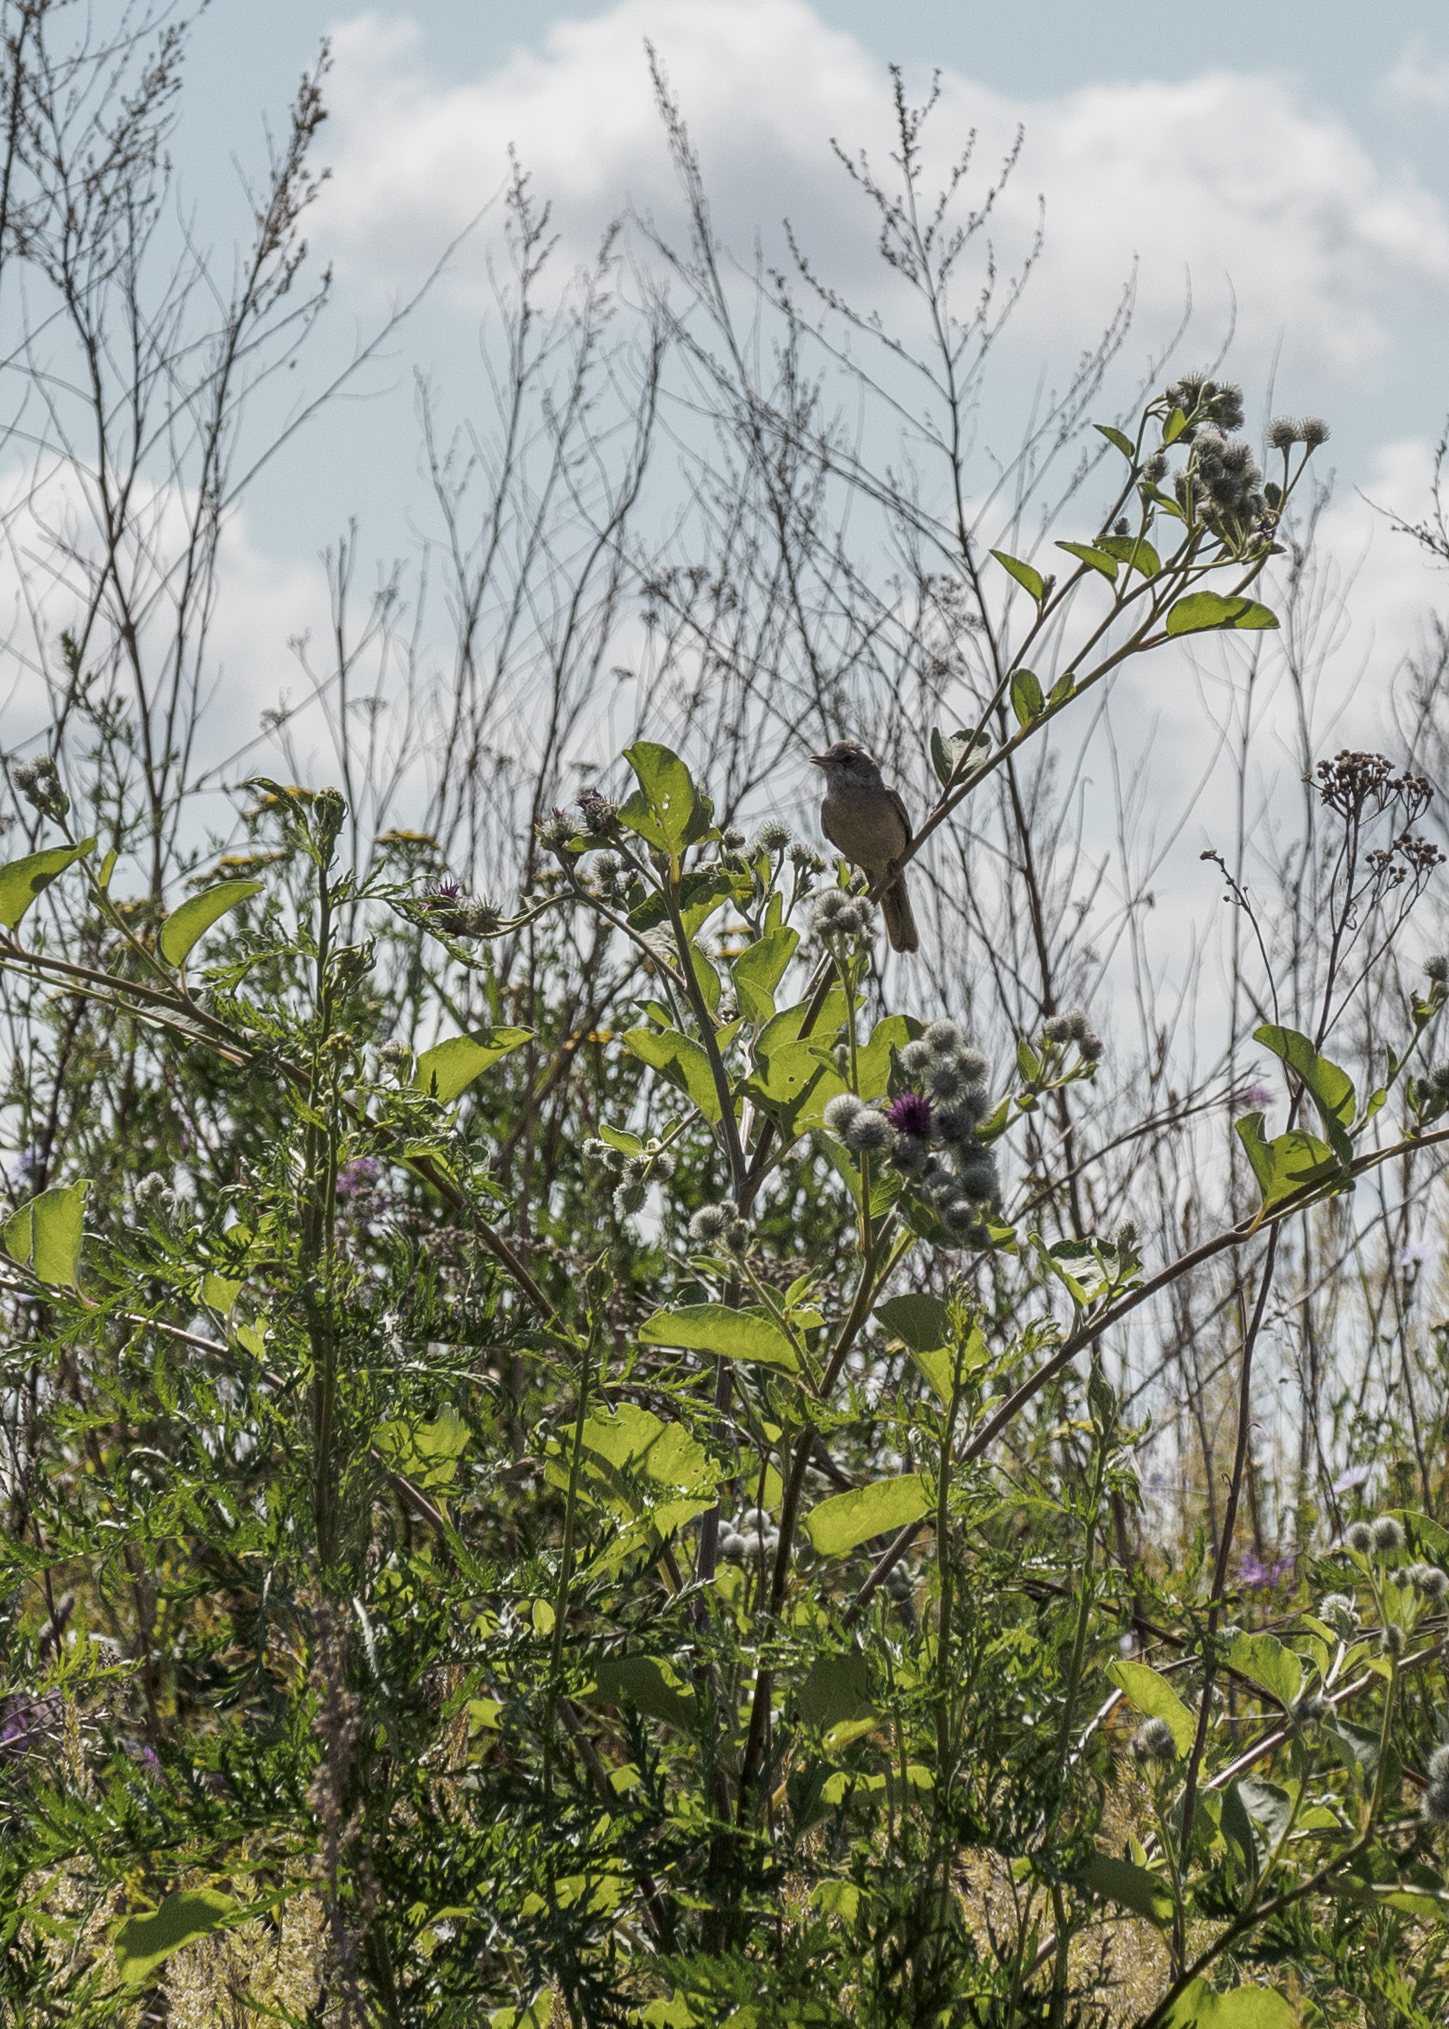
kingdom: Animalia
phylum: Chordata
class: Aves
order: Passeriformes
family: Sylviidae
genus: Sylvia
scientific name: Sylvia communis
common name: Common whitethroat
